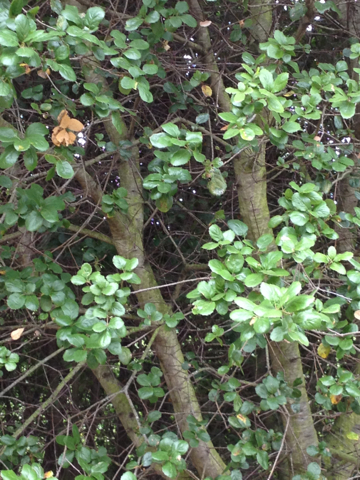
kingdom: Plantae
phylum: Tracheophyta
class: Magnoliopsida
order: Fagales
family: Fagaceae
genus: Quercus
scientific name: Quercus agrifolia
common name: California live oak
